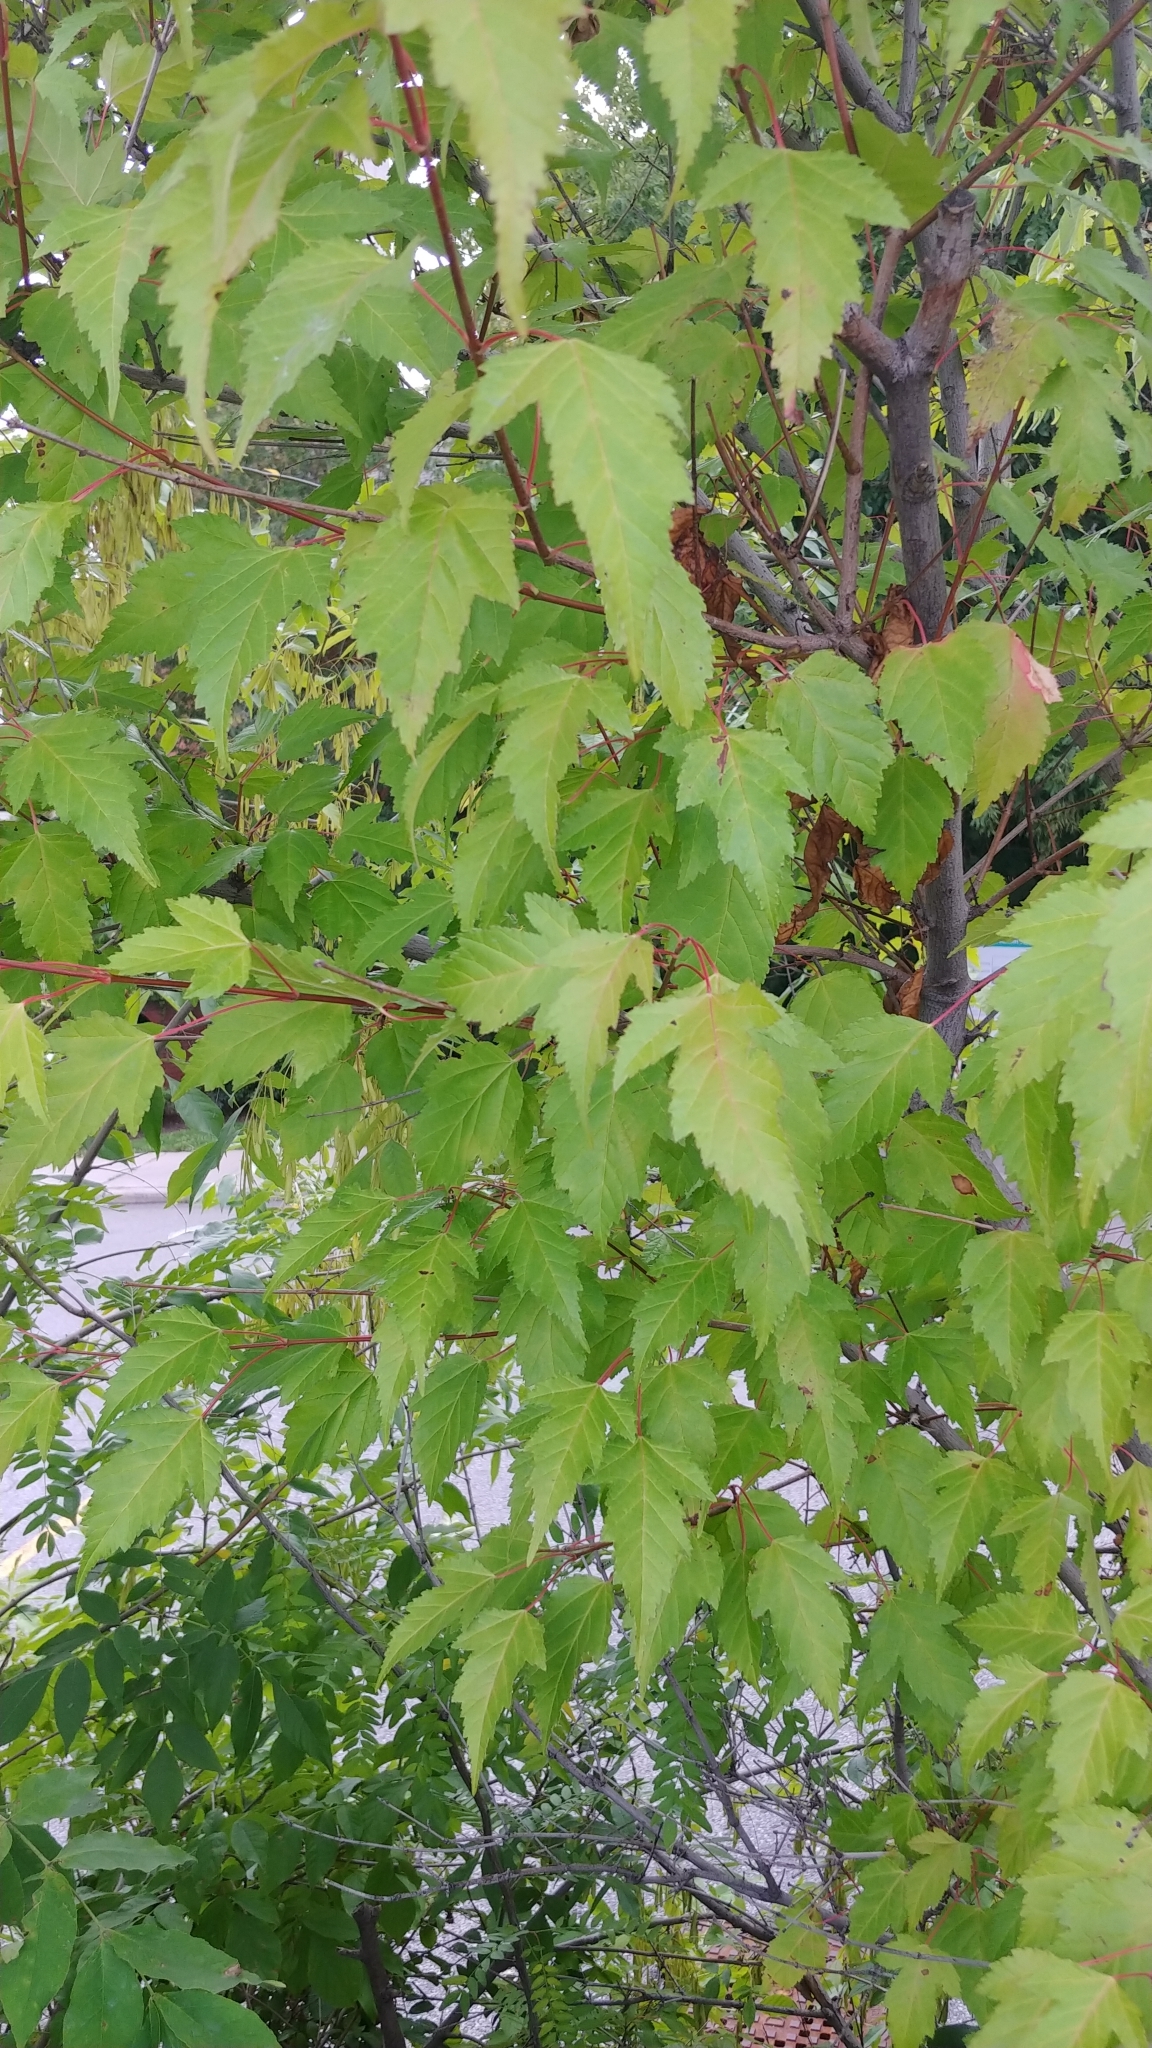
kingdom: Plantae
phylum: Tracheophyta
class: Magnoliopsida
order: Sapindales
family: Sapindaceae
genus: Acer
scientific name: Acer tataricum
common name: Tartar maple
